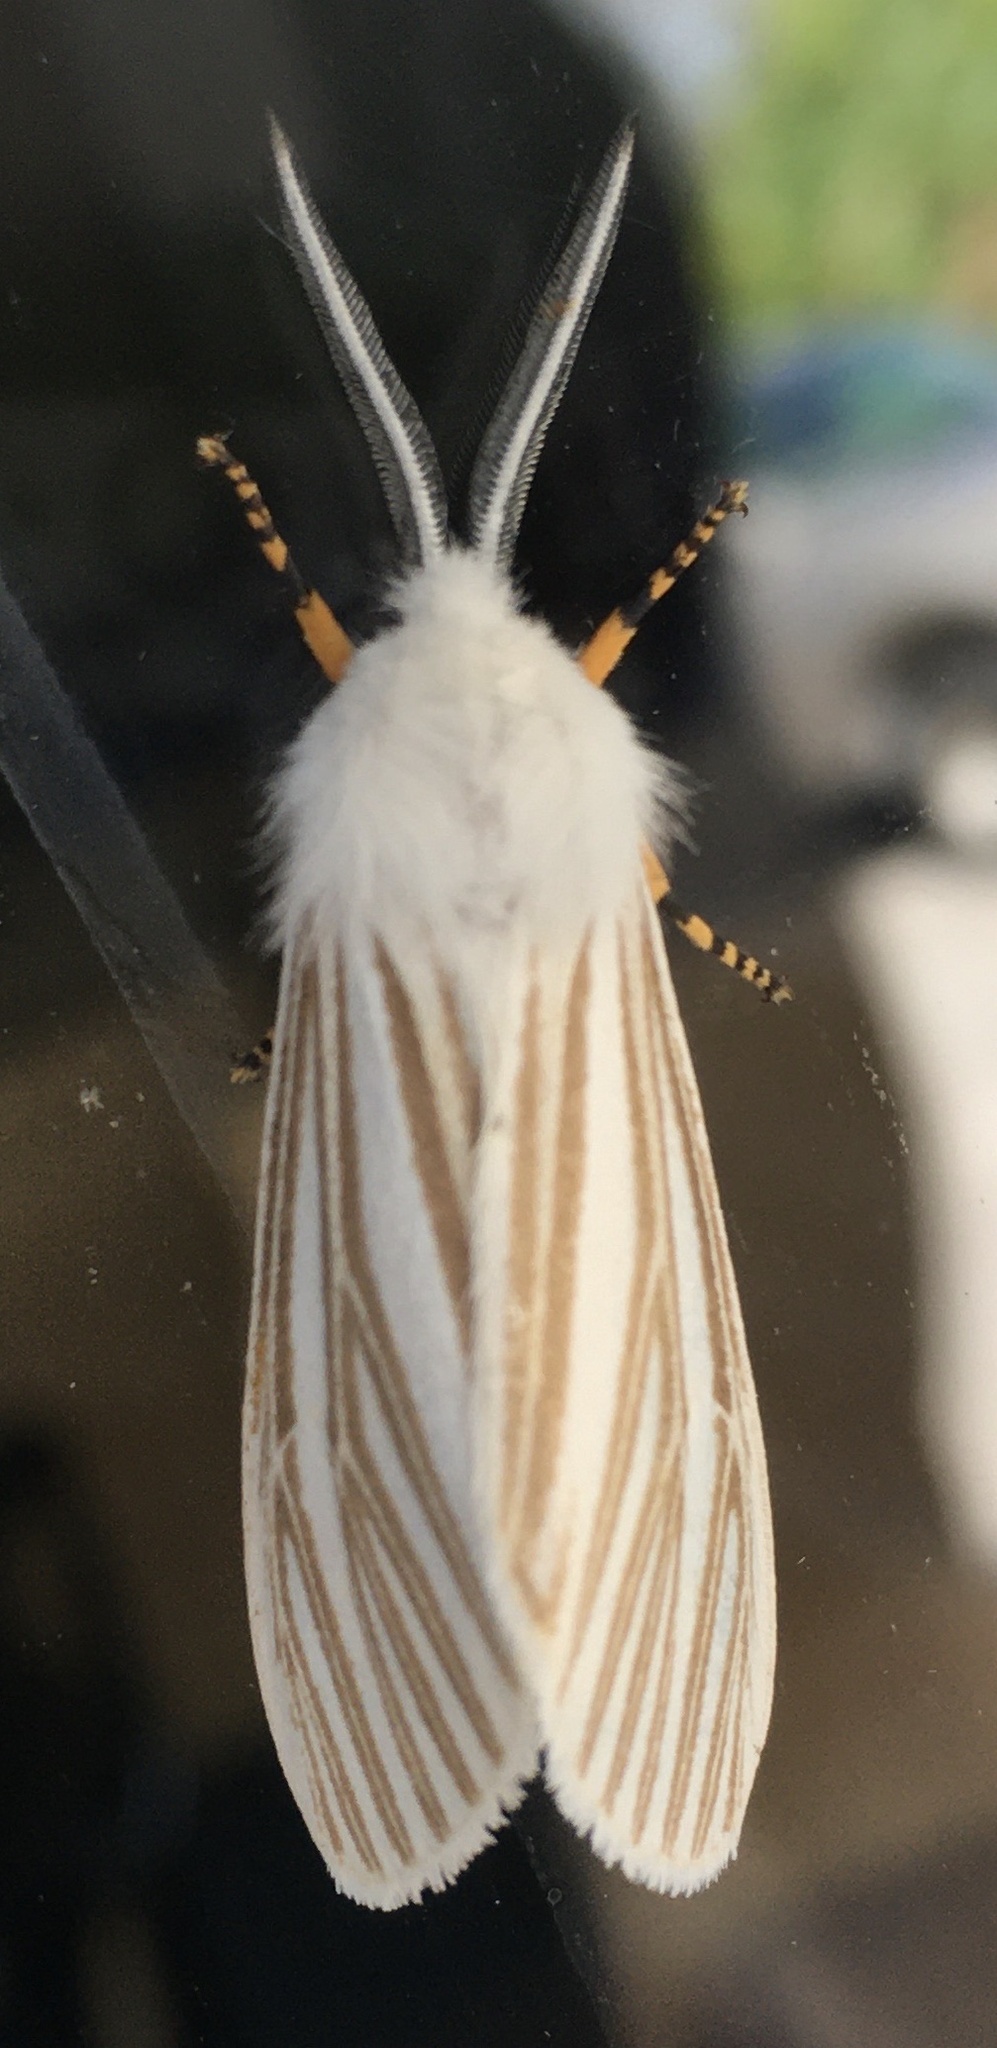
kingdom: Animalia
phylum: Arthropoda
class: Insecta
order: Lepidoptera
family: Erebidae
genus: Seirarctia
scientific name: Seirarctia echo
